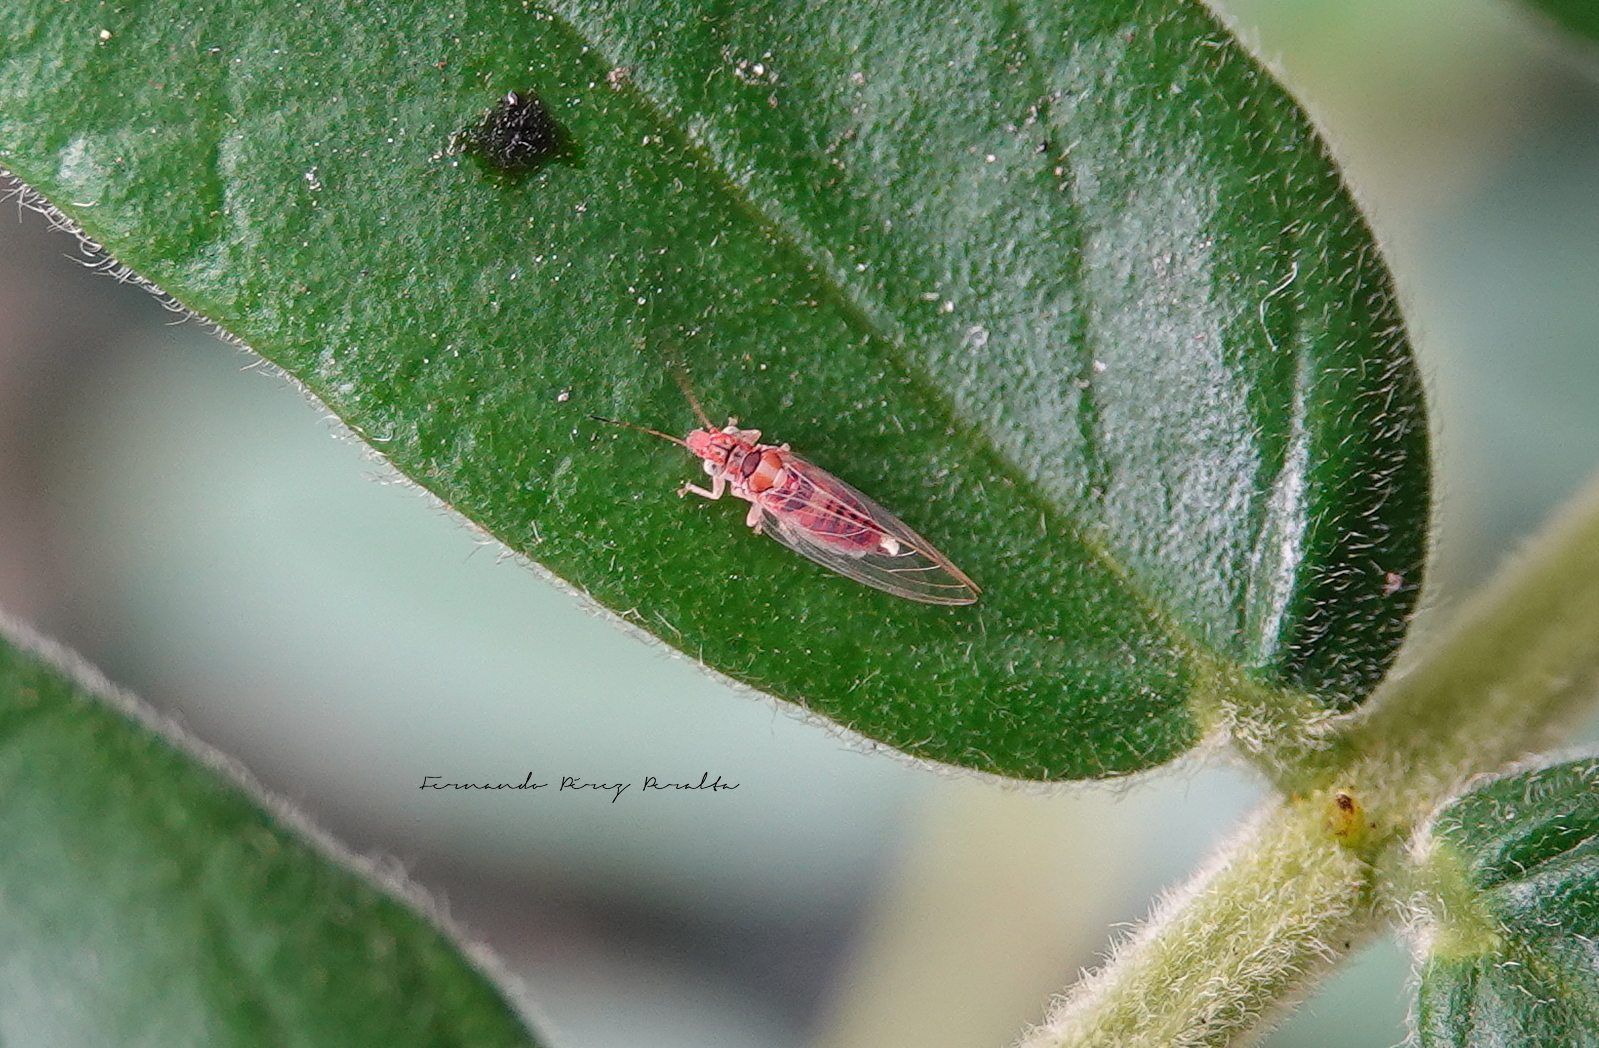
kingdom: Animalia
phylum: Arthropoda
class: Insecta
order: Hemiptera
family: Aphalaridae
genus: Glycaspis
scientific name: Glycaspis brimblecombei
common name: Red gum lerp psyllid
